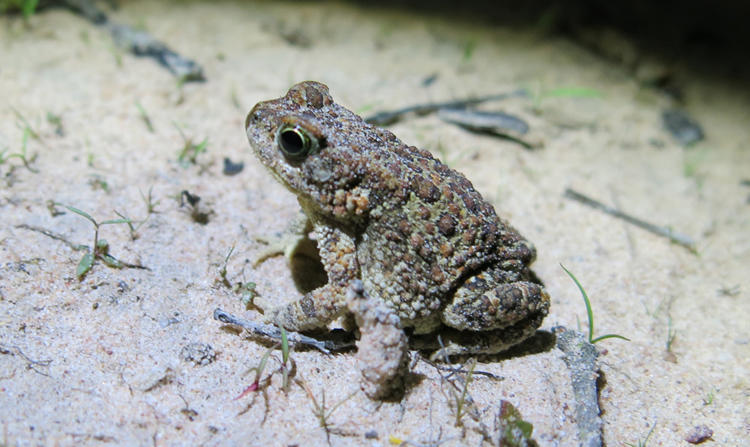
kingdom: Animalia
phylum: Chordata
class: Amphibia
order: Anura
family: Bufonidae
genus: Poyntonophrynus
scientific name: Poyntonophrynus fenoulheti
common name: Fenoulhet's toad
